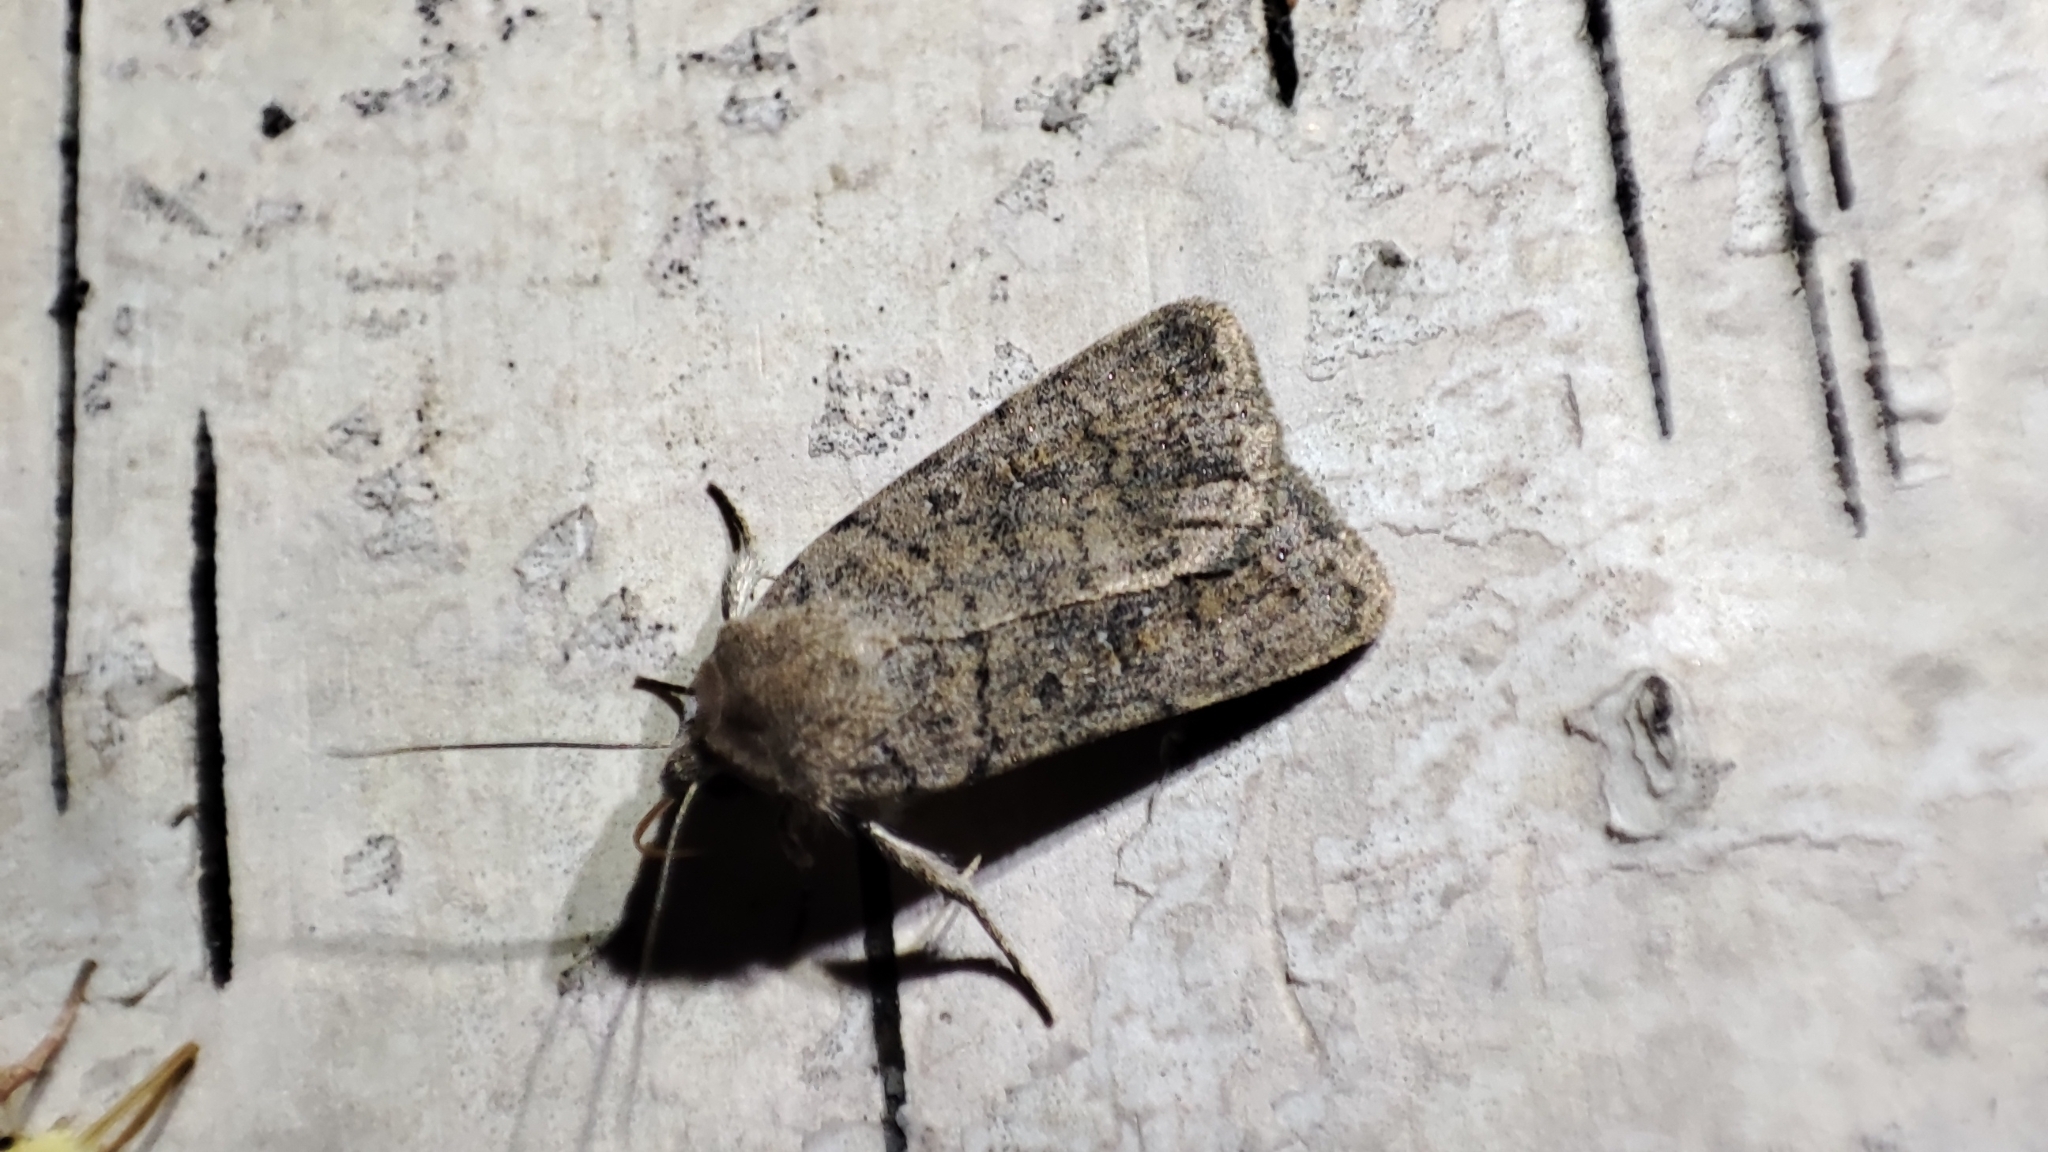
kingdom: Animalia
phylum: Arthropoda
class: Insecta
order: Lepidoptera
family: Noctuidae
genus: Caradrina
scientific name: Caradrina terrea
